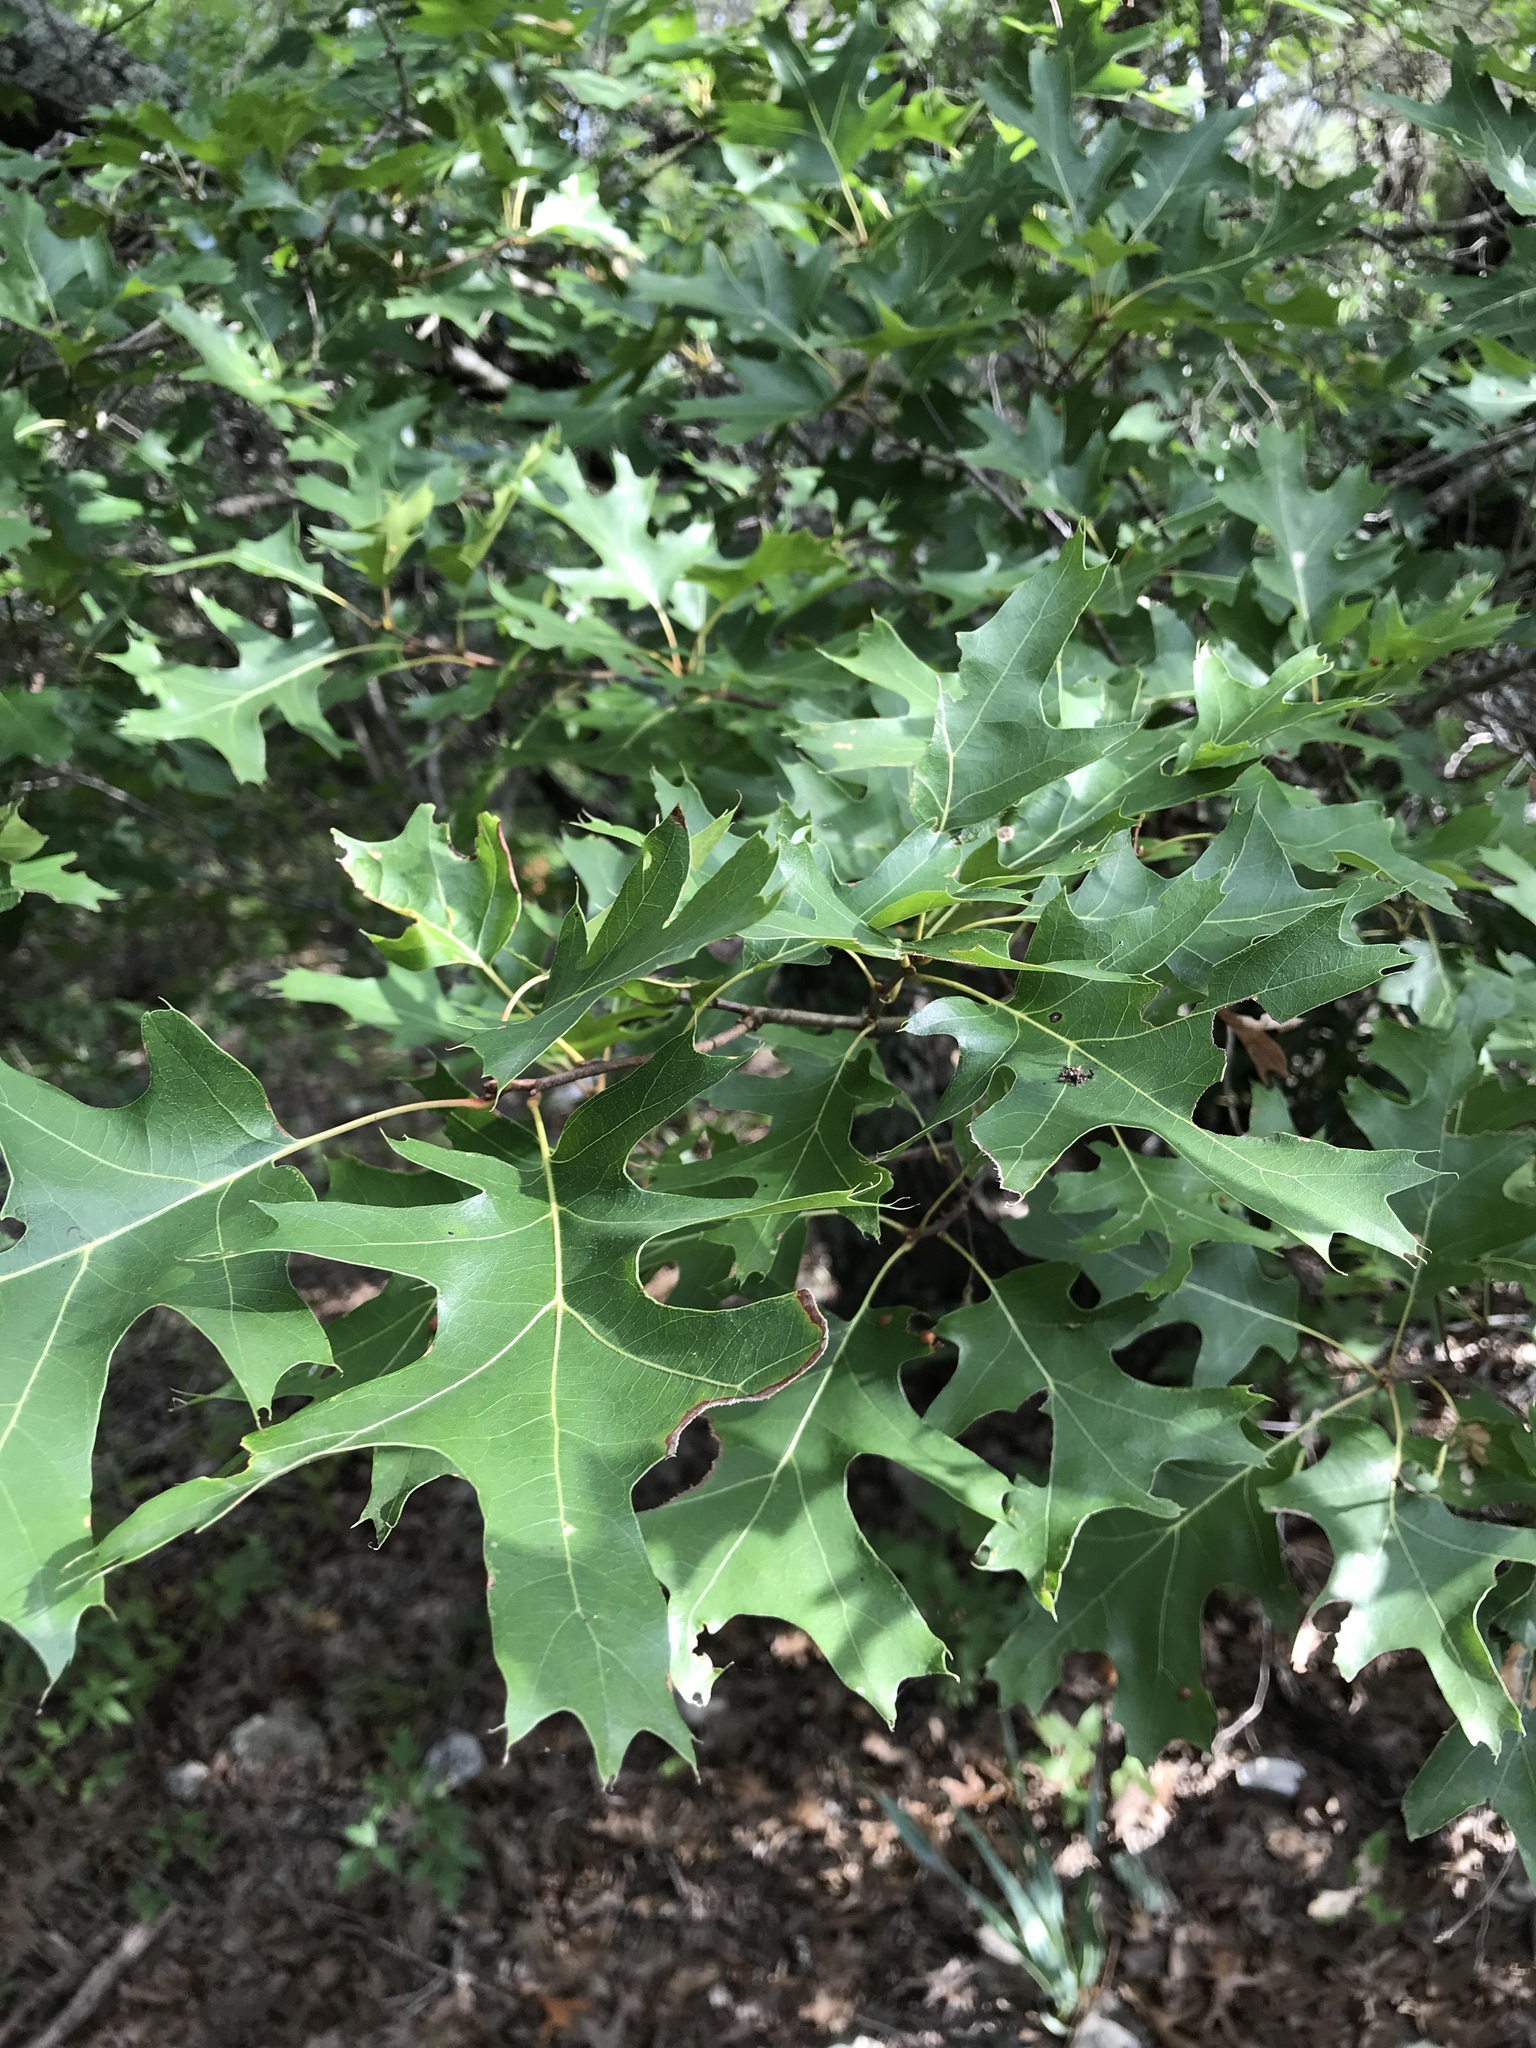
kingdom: Plantae
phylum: Tracheophyta
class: Magnoliopsida
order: Fagales
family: Fagaceae
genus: Quercus
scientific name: Quercus buckleyi
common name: Buckley oak
